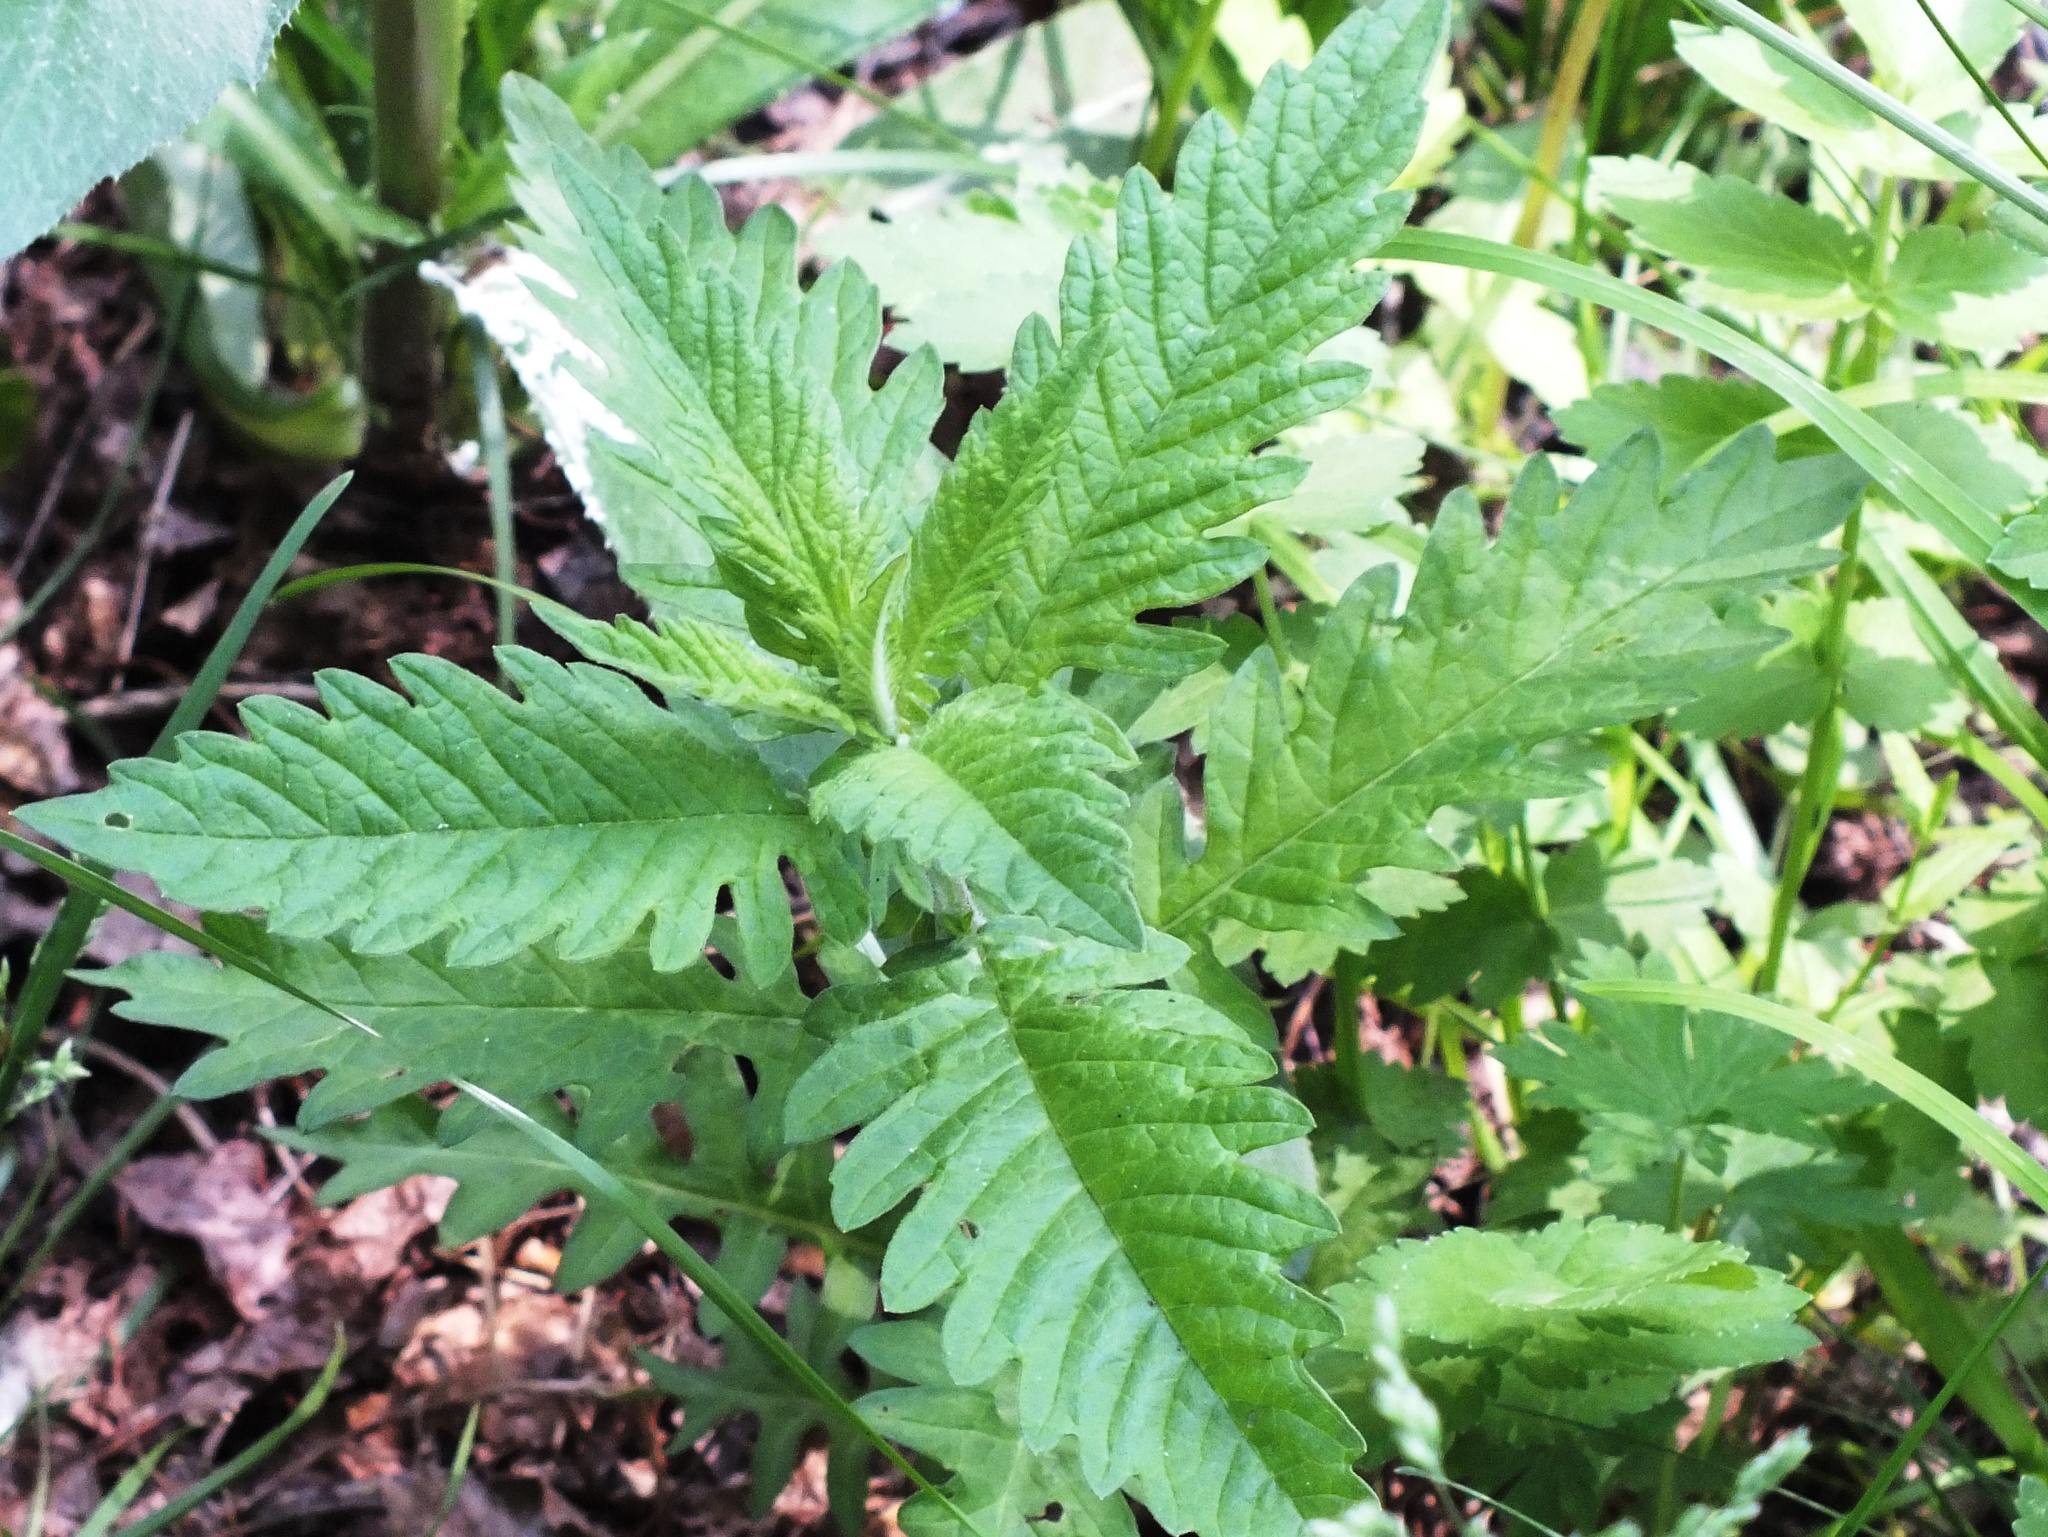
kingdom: Plantae
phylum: Tracheophyta
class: Magnoliopsida
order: Lamiales
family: Lamiaceae
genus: Lycopus
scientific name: Lycopus europaeus
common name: European bugleweed
